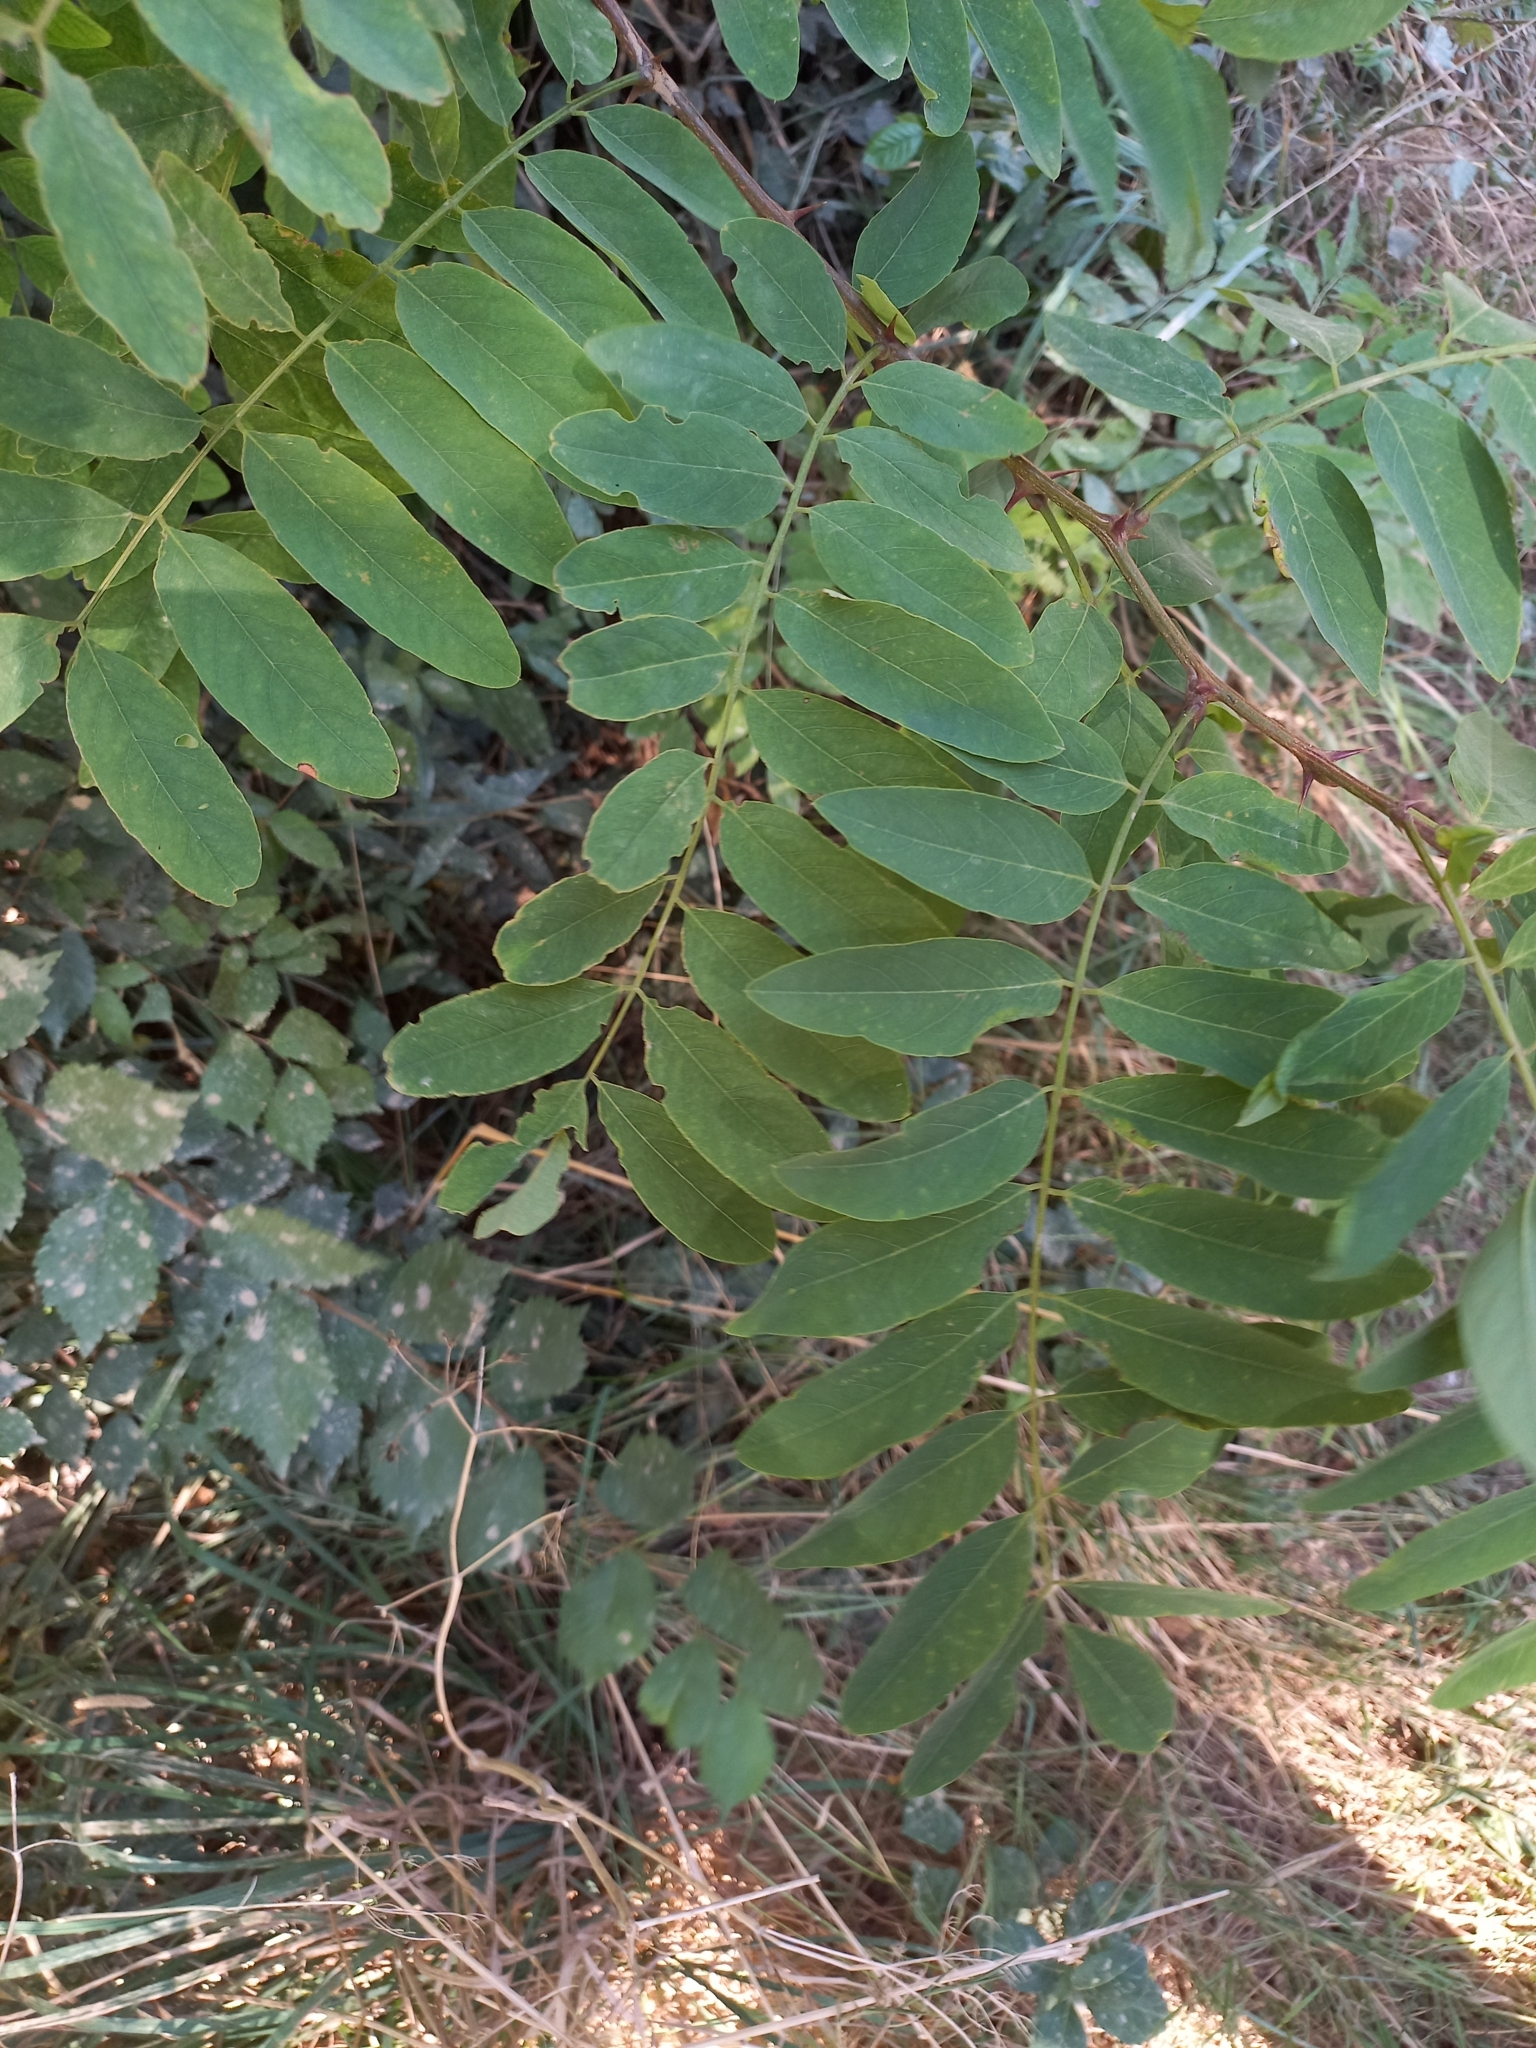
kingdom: Plantae
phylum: Tracheophyta
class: Magnoliopsida
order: Fabales
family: Fabaceae
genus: Robinia
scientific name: Robinia pseudoacacia
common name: Black locust
